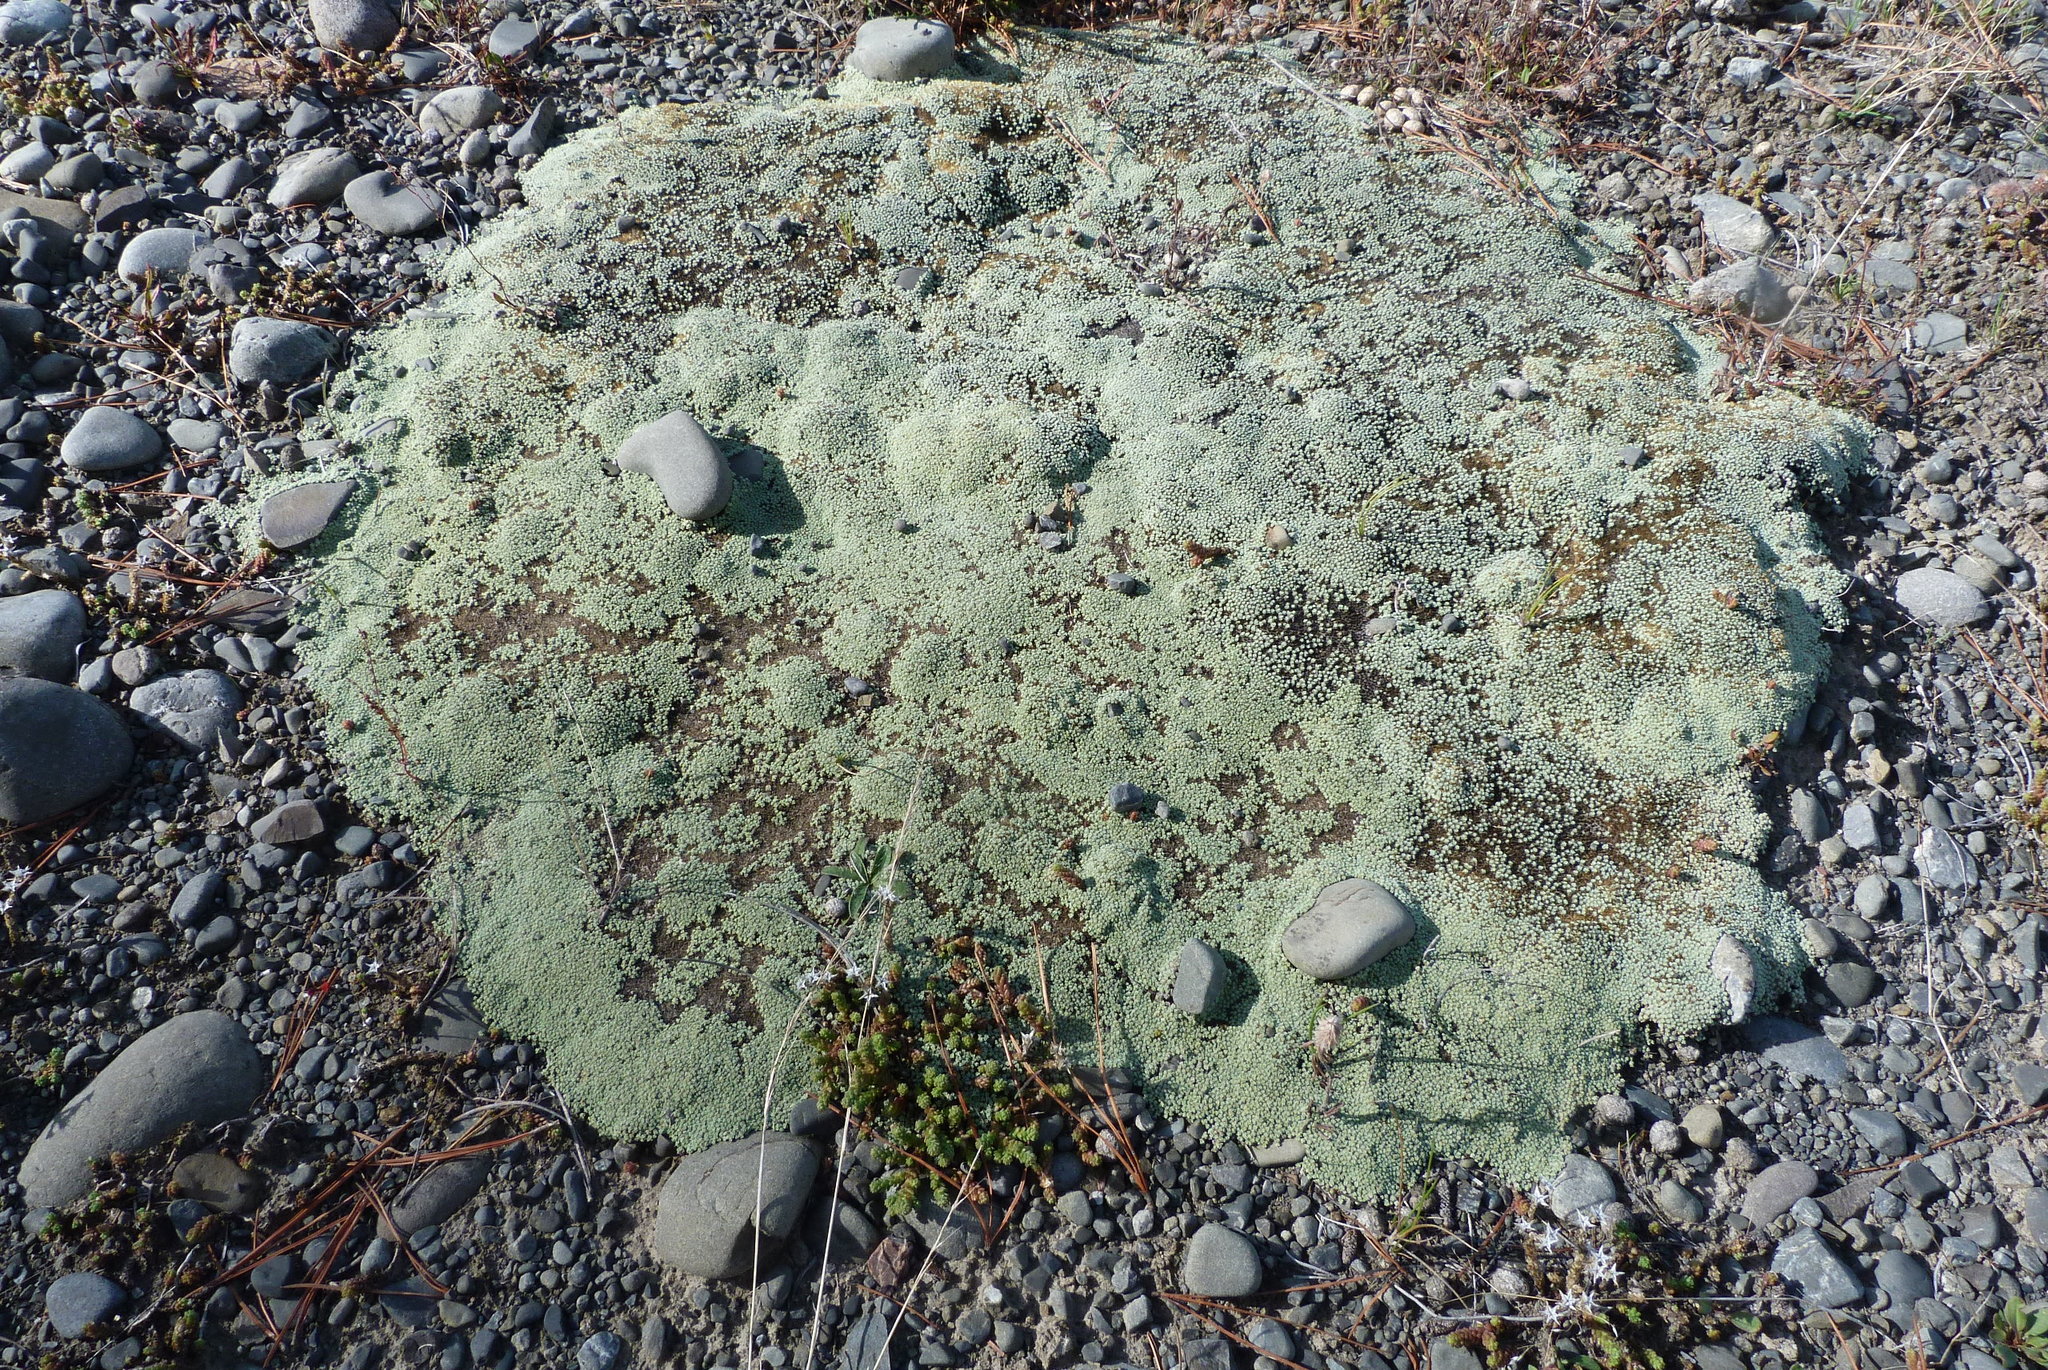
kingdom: Plantae
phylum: Tracheophyta
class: Magnoliopsida
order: Asterales
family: Asteraceae
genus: Raoulia
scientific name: Raoulia australis
